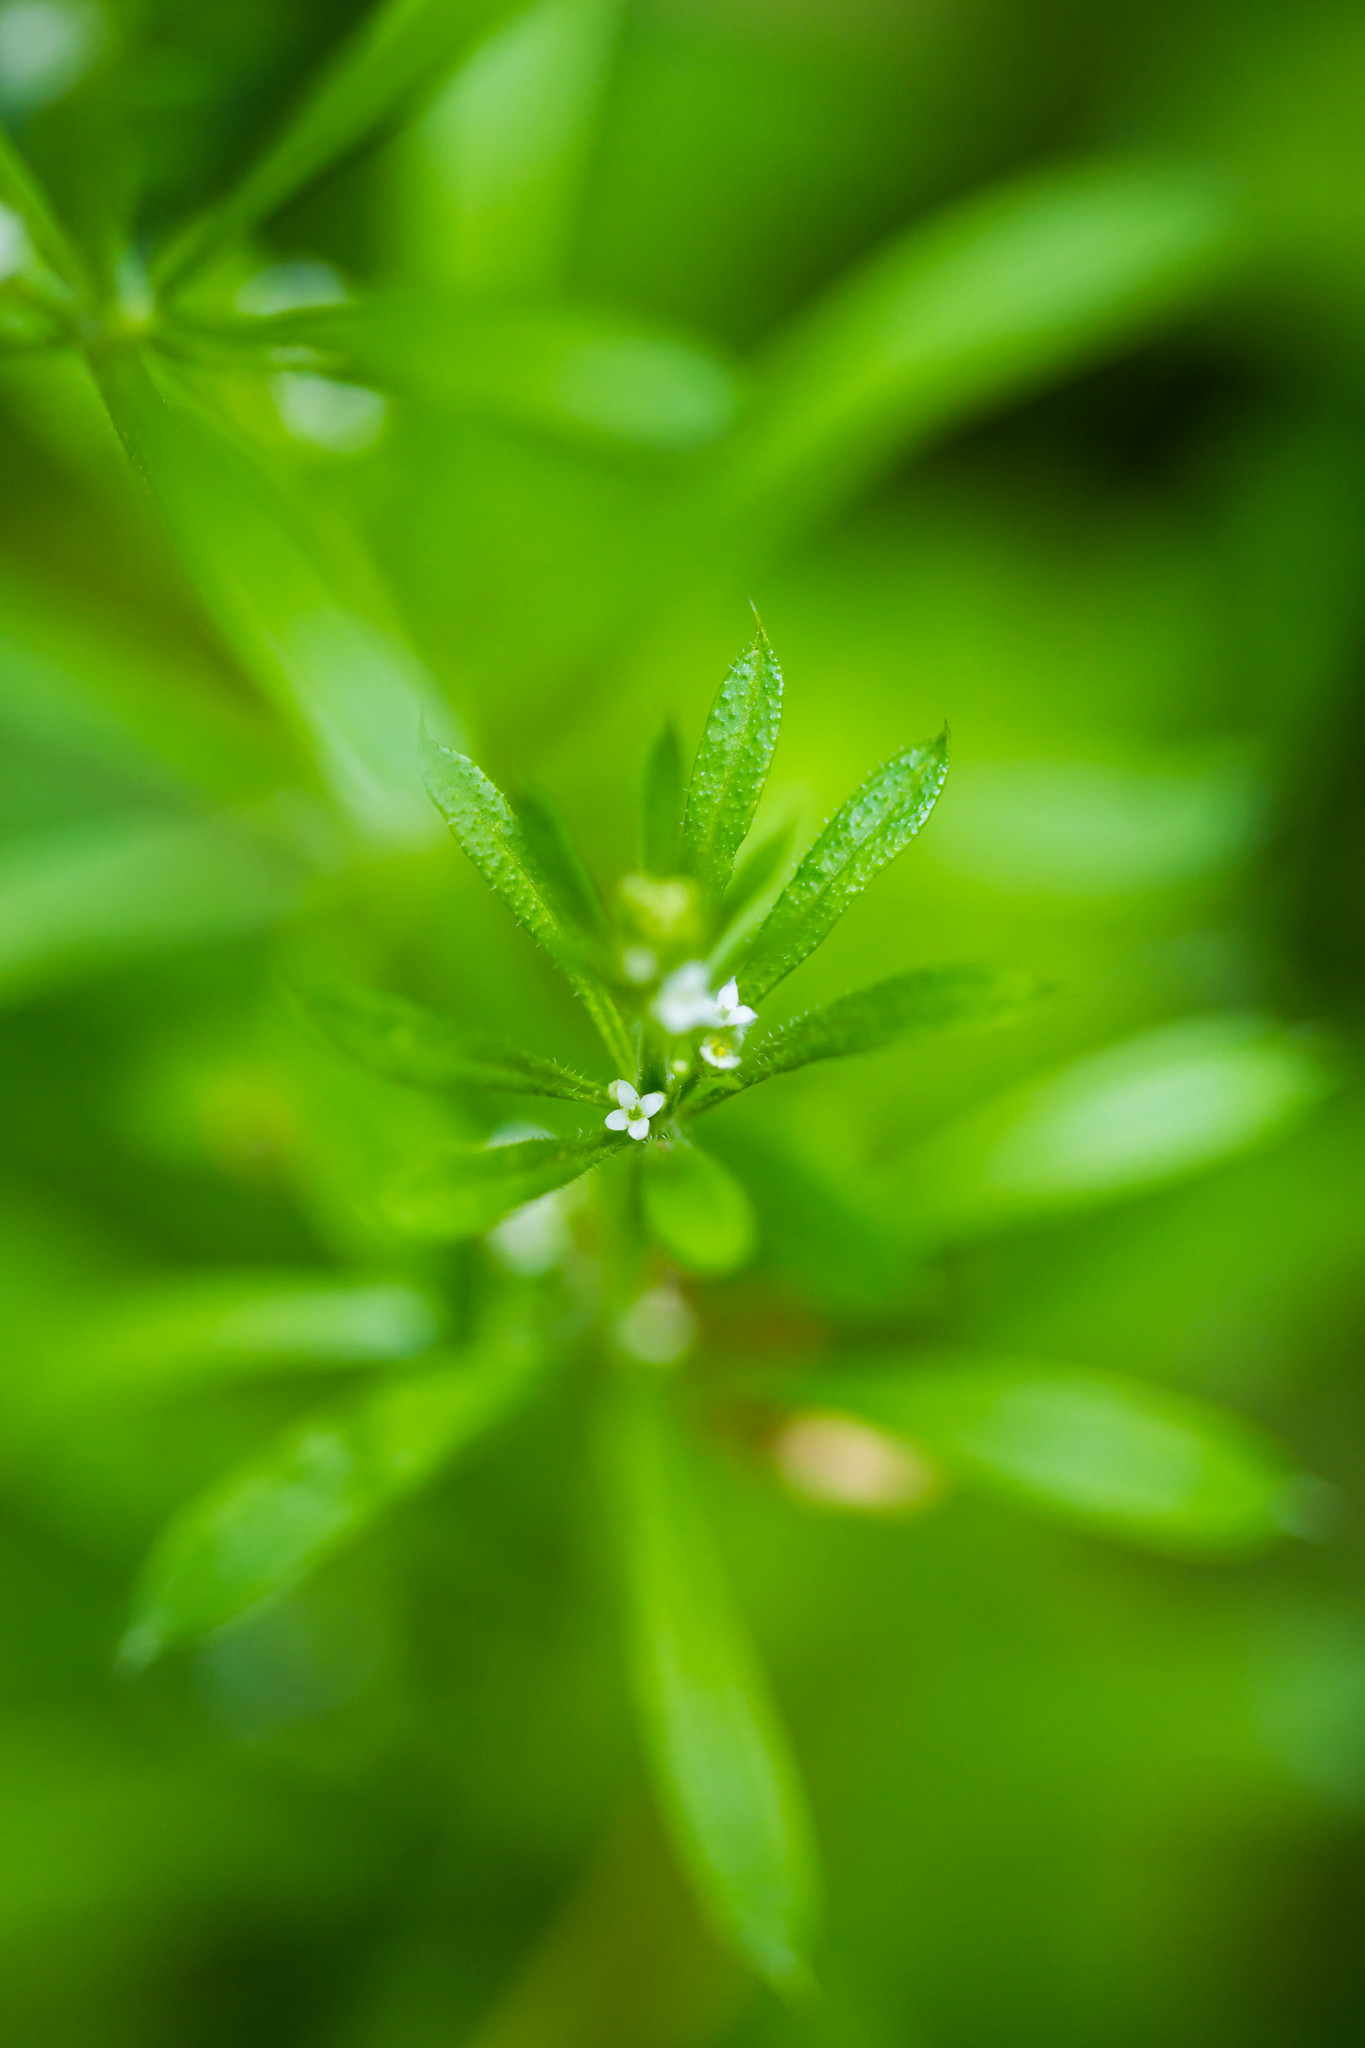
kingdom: Plantae
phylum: Tracheophyta
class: Magnoliopsida
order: Gentianales
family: Rubiaceae
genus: Galium
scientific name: Galium aparine
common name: Cleavers
